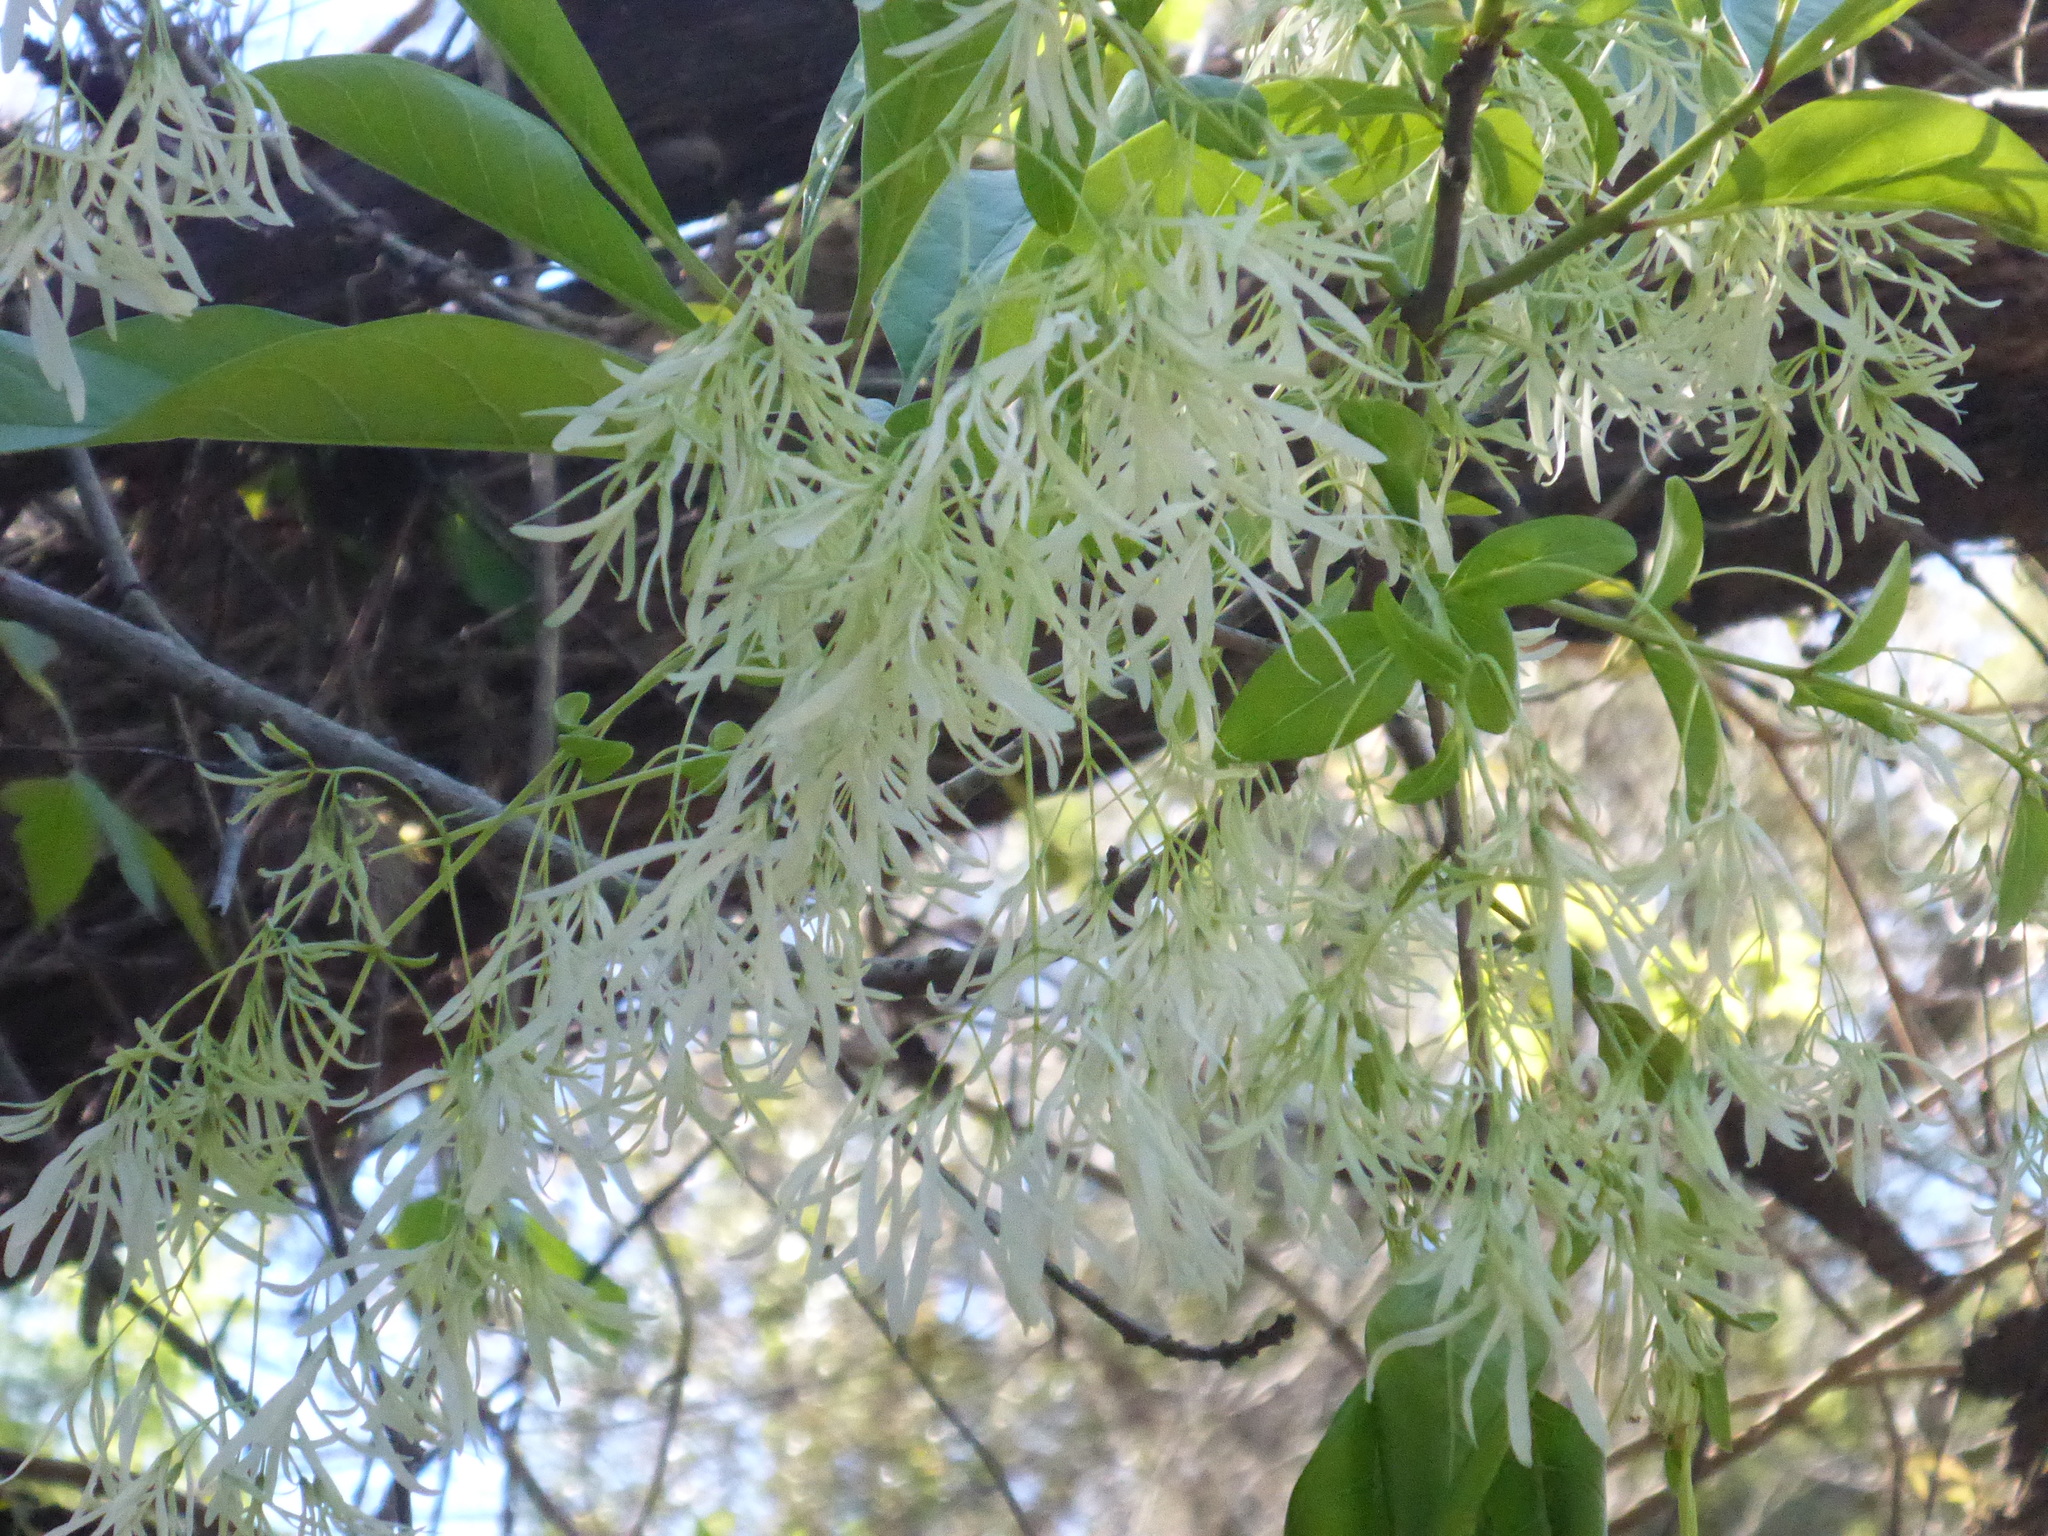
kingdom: Plantae
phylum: Tracheophyta
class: Magnoliopsida
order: Lamiales
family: Oleaceae
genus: Chionanthus
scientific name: Chionanthus virginicus
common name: American fringetree
